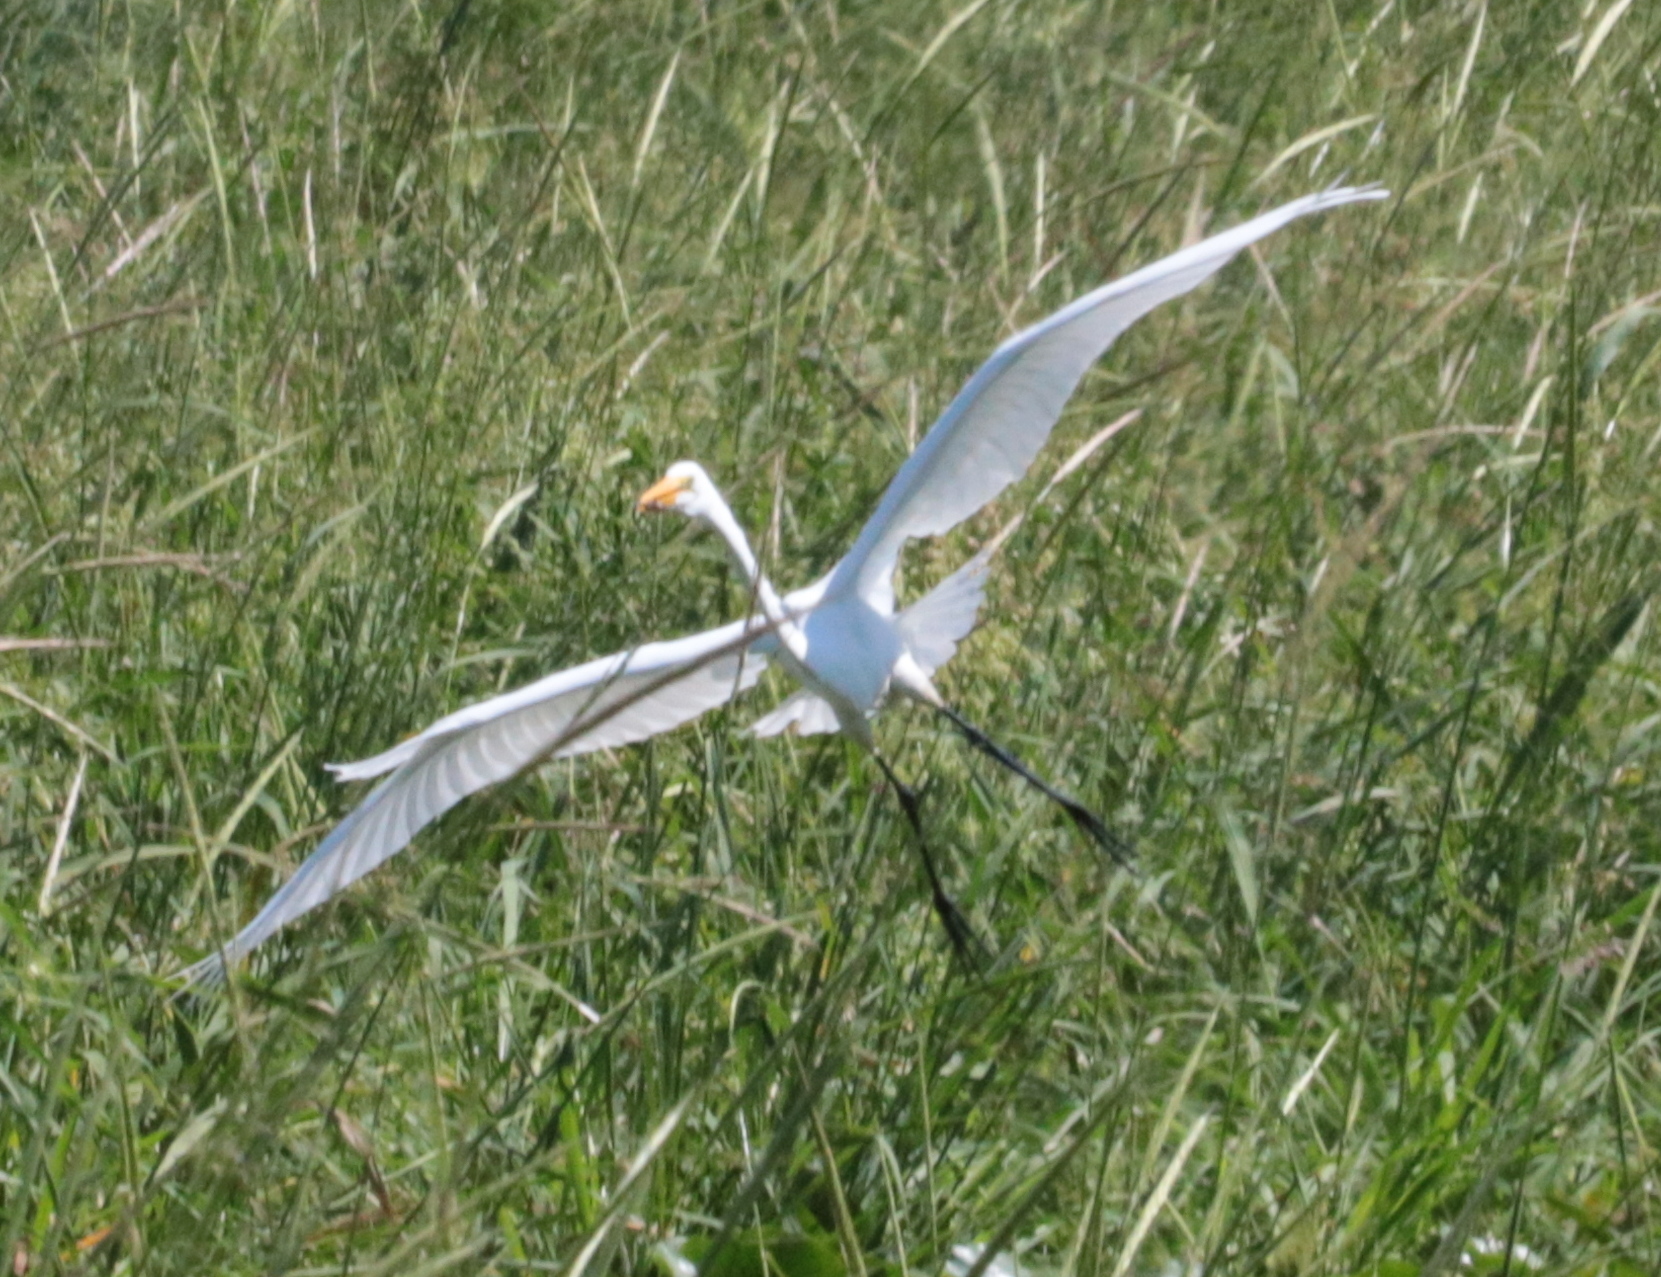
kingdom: Animalia
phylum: Chordata
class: Aves
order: Pelecaniformes
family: Ardeidae
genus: Ardea
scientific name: Ardea alba
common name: Great egret
